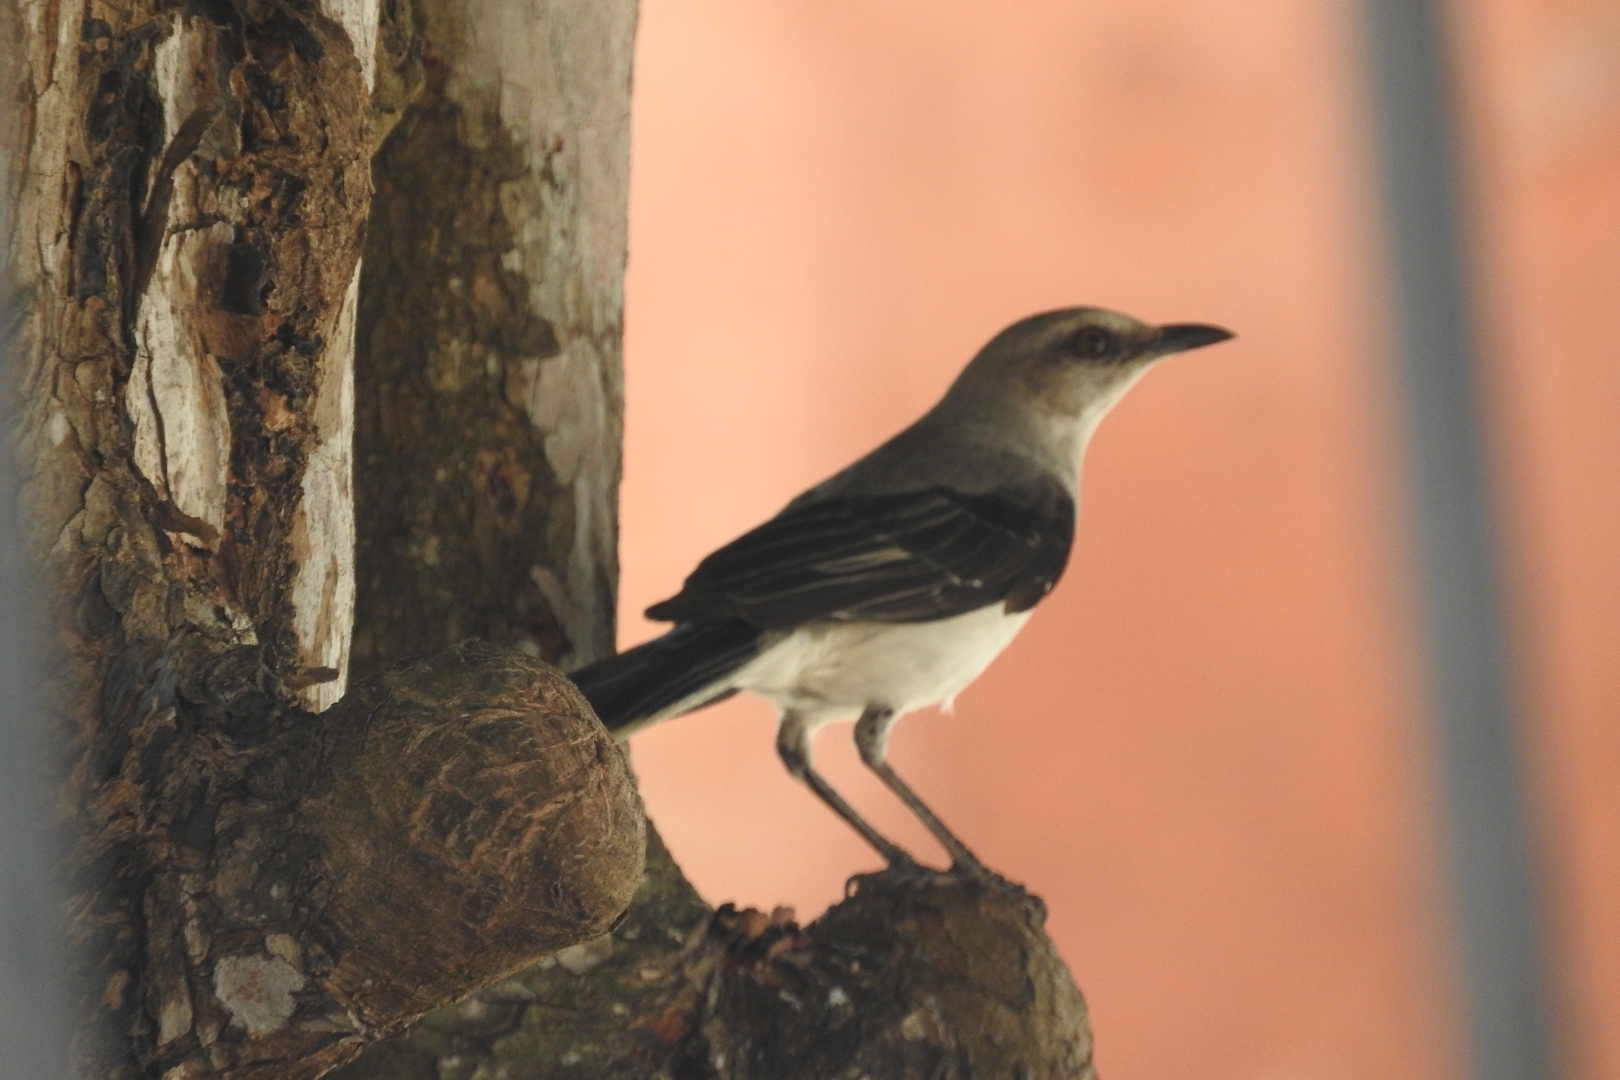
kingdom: Animalia
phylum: Chordata
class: Aves
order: Passeriformes
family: Mimidae
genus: Mimus
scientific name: Mimus gilvus
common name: Tropical mockingbird
